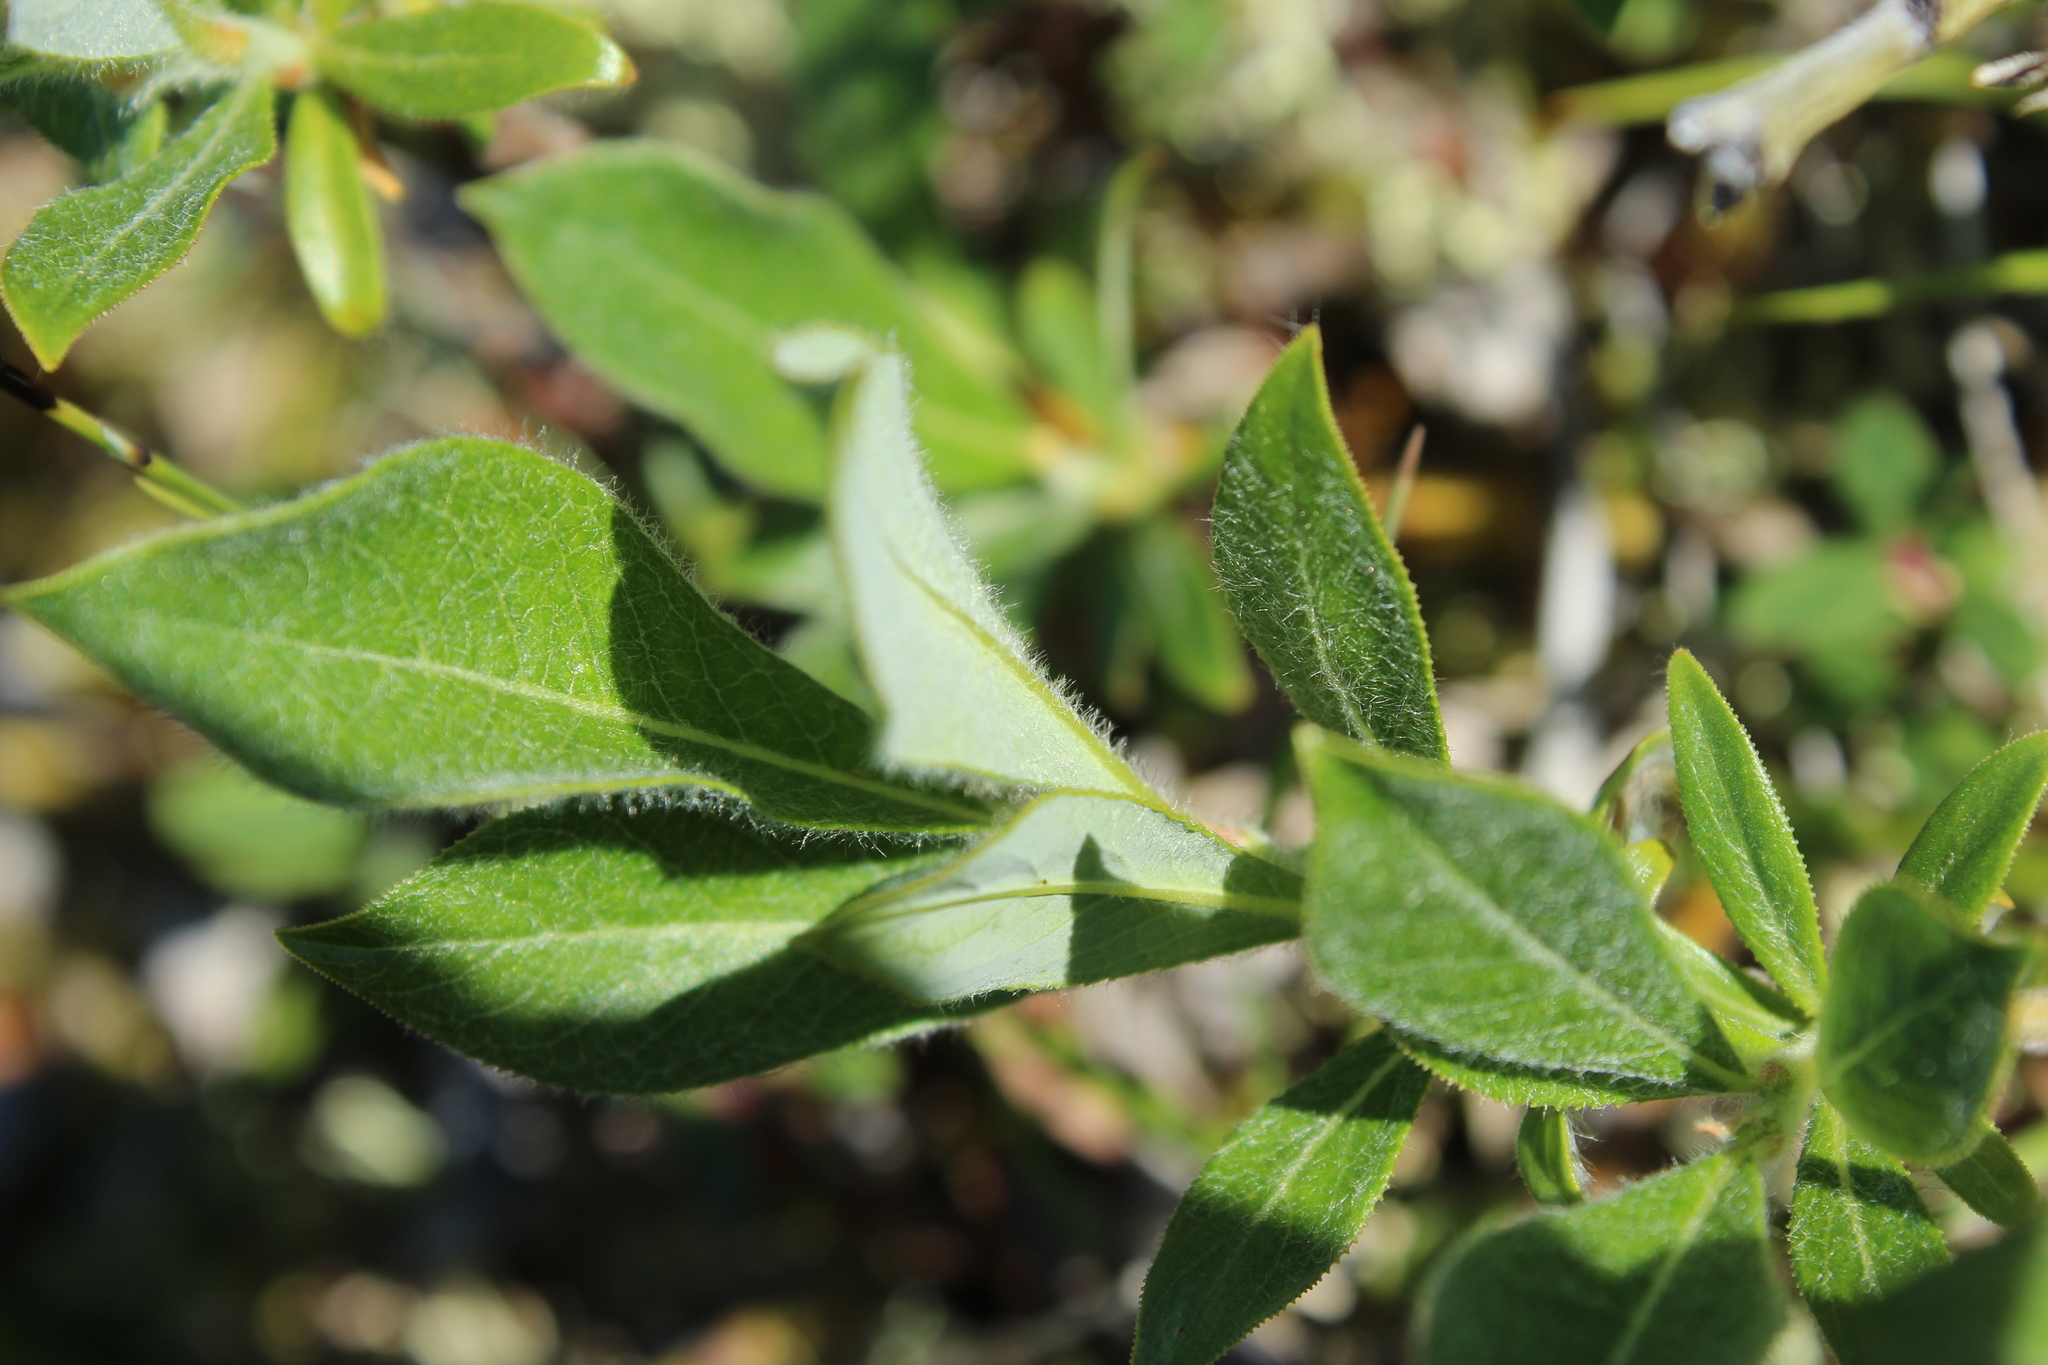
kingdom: Plantae
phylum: Tracheophyta
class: Magnoliopsida
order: Malpighiales
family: Salicaceae
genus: Salix
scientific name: Salix lanata
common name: Woolly willow
